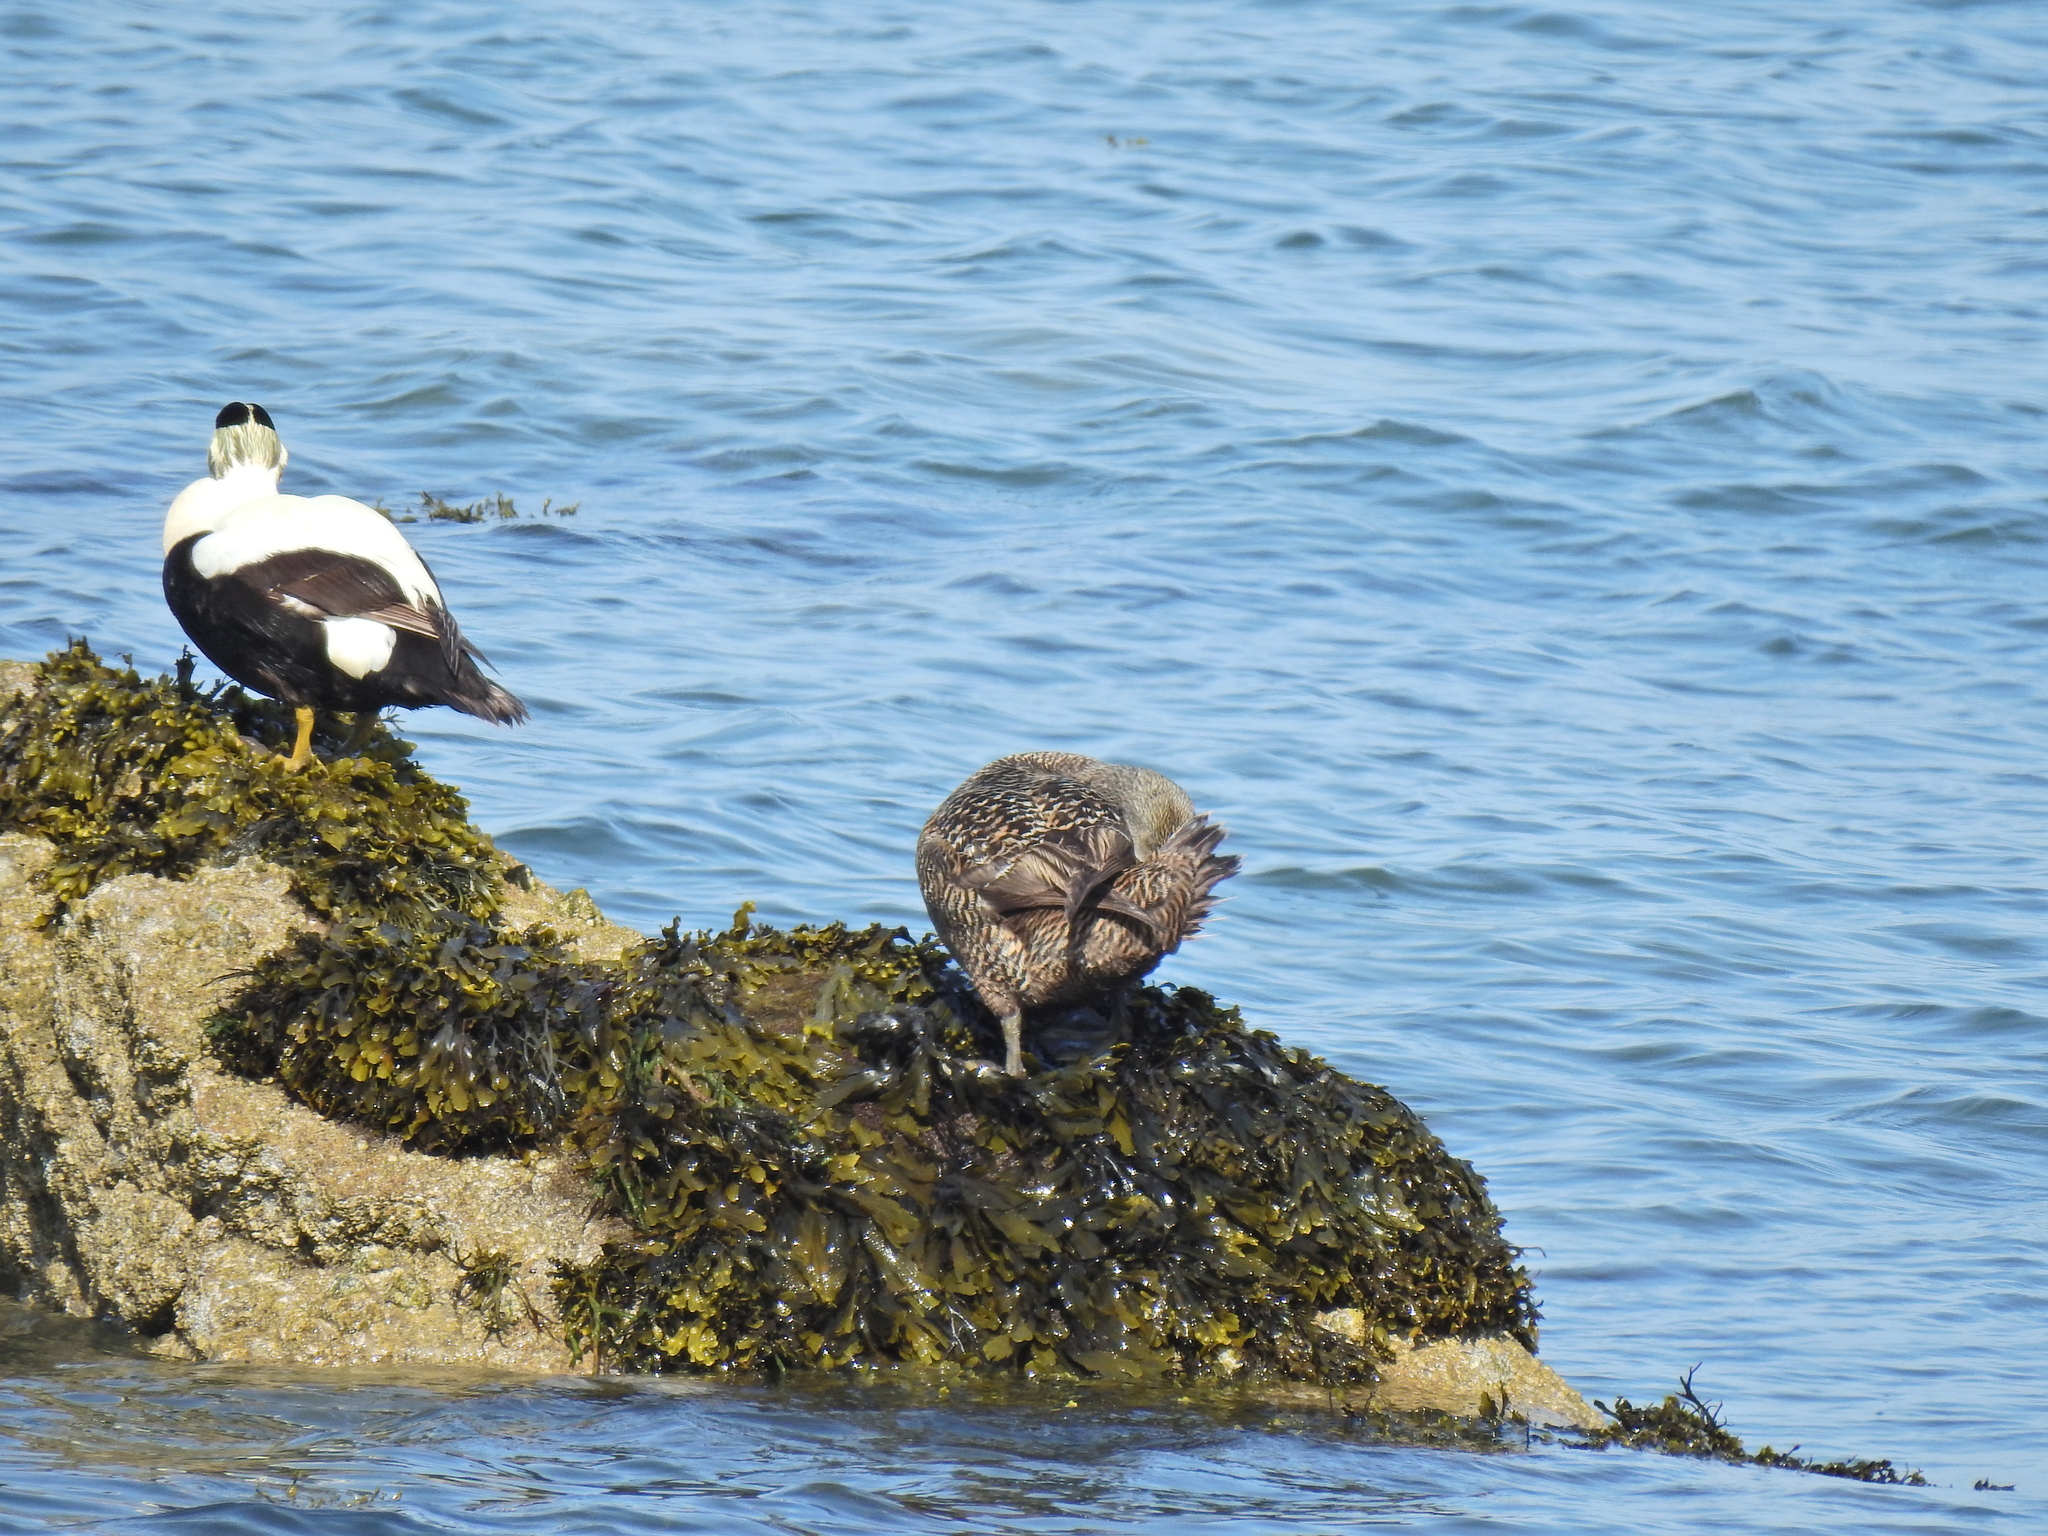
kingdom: Animalia
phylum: Chordata
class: Aves
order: Anseriformes
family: Anatidae
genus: Somateria
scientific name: Somateria mollissima
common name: Common eider
